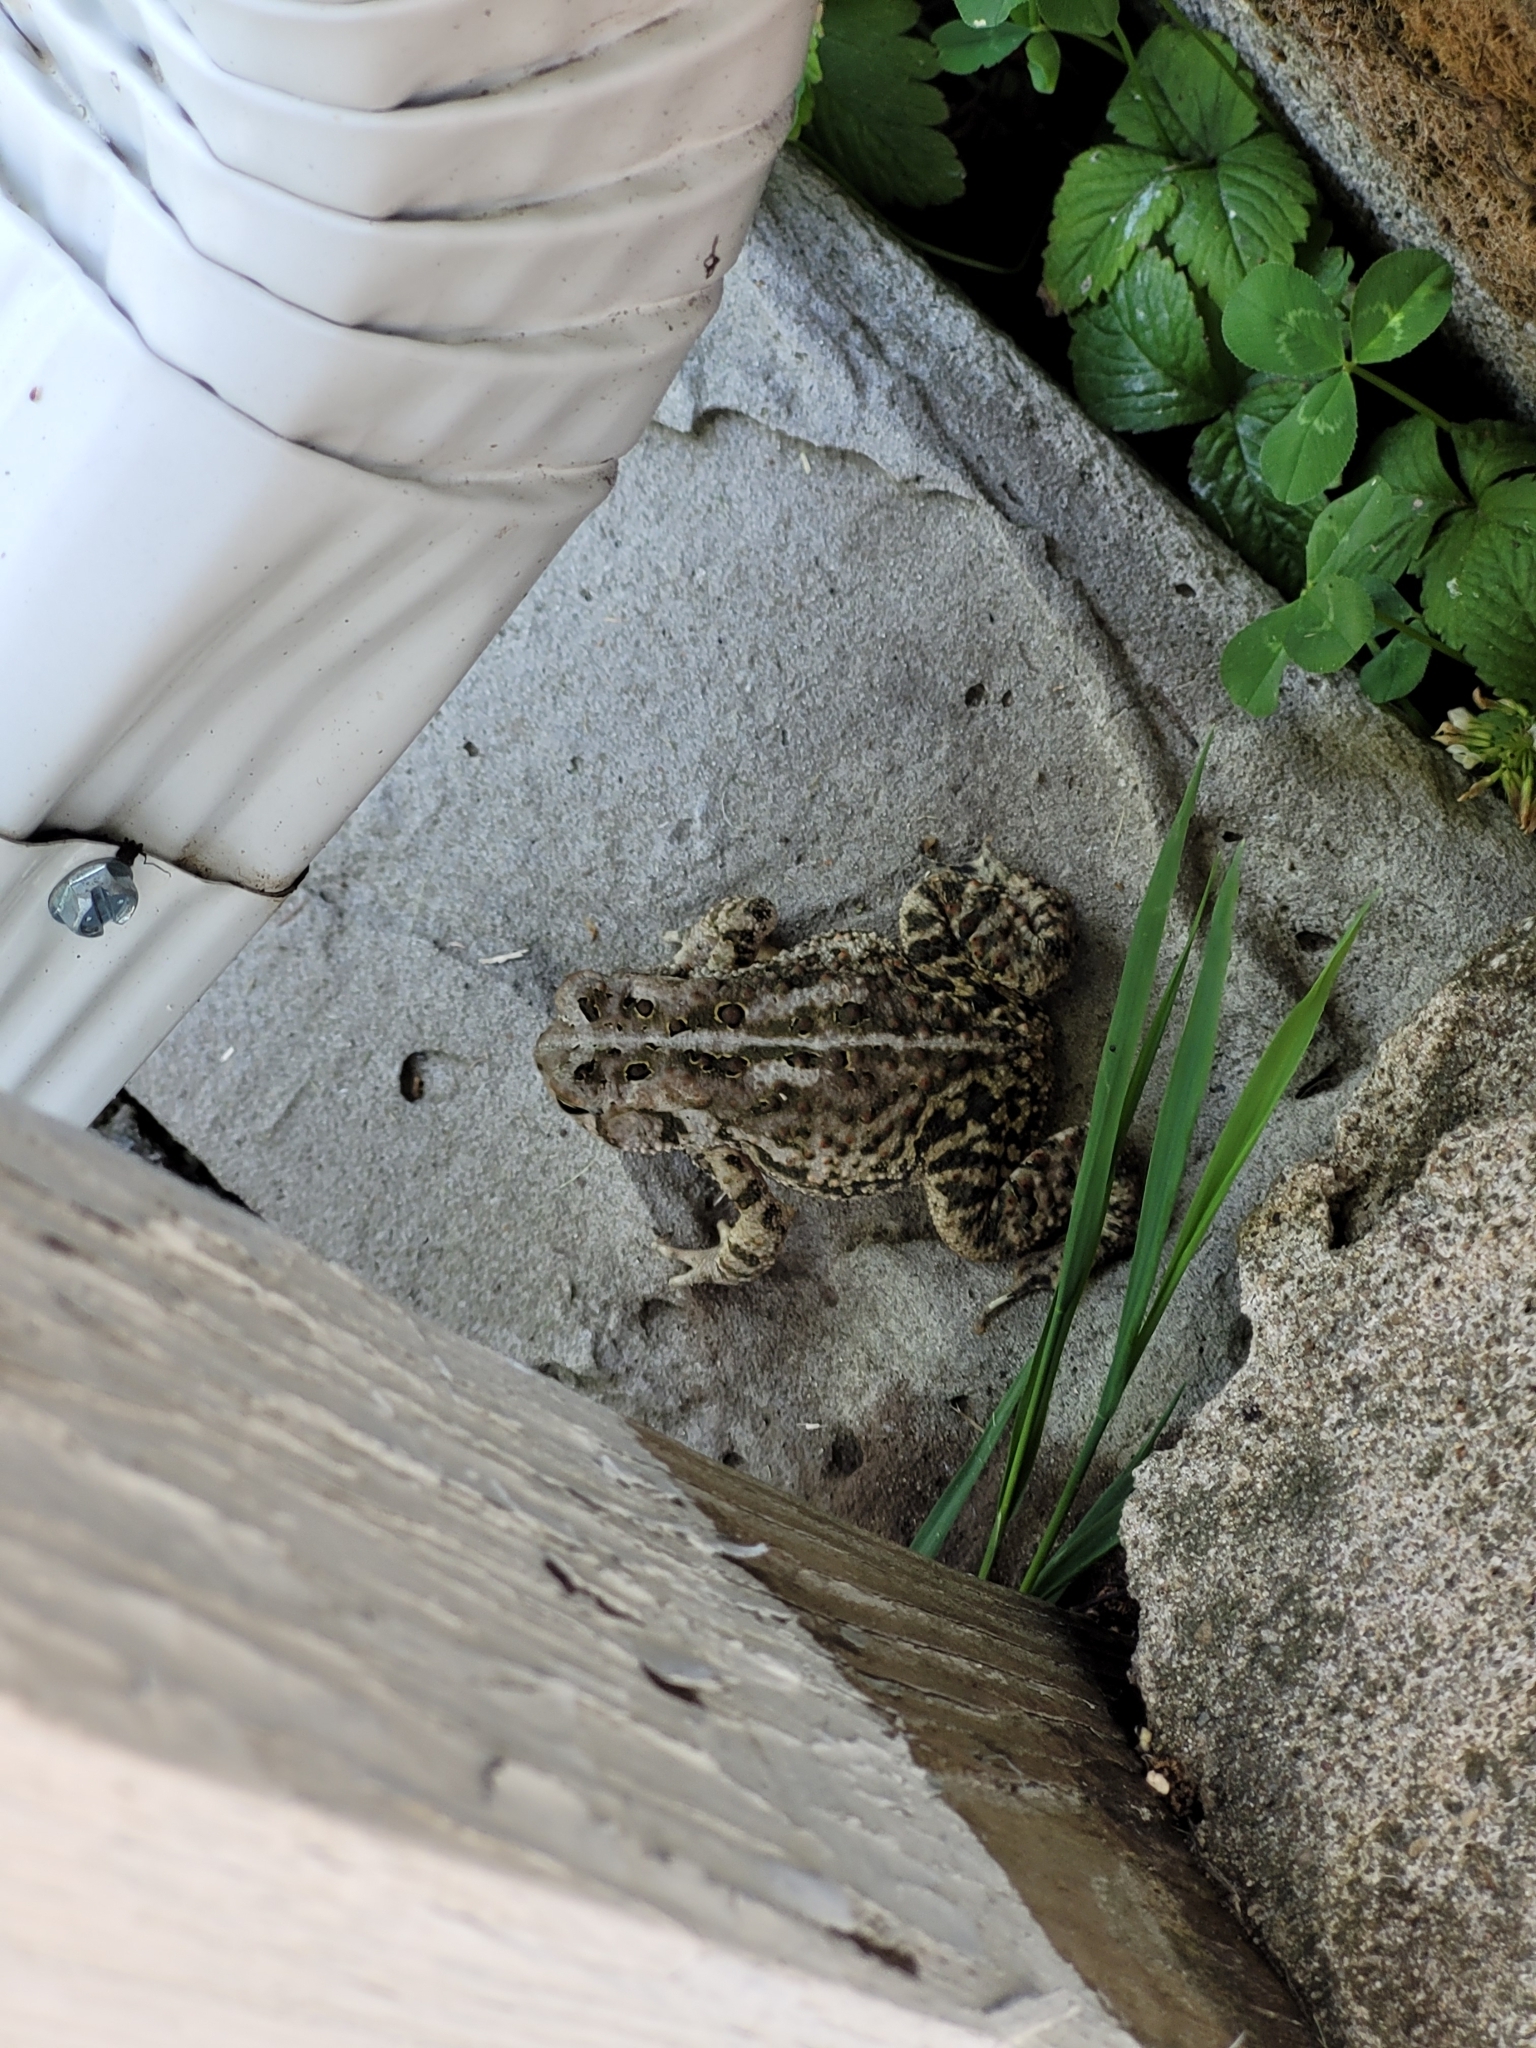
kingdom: Animalia
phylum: Chordata
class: Amphibia
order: Anura
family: Bufonidae
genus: Anaxyrus
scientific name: Anaxyrus americanus
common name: American toad
